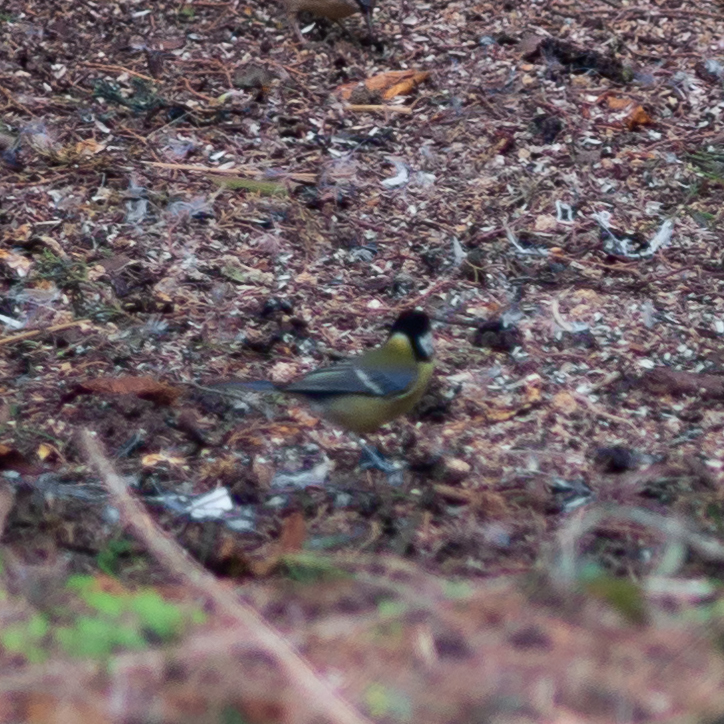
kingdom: Animalia
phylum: Chordata
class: Aves
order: Passeriformes
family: Paridae
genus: Parus
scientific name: Parus major
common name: Great tit
